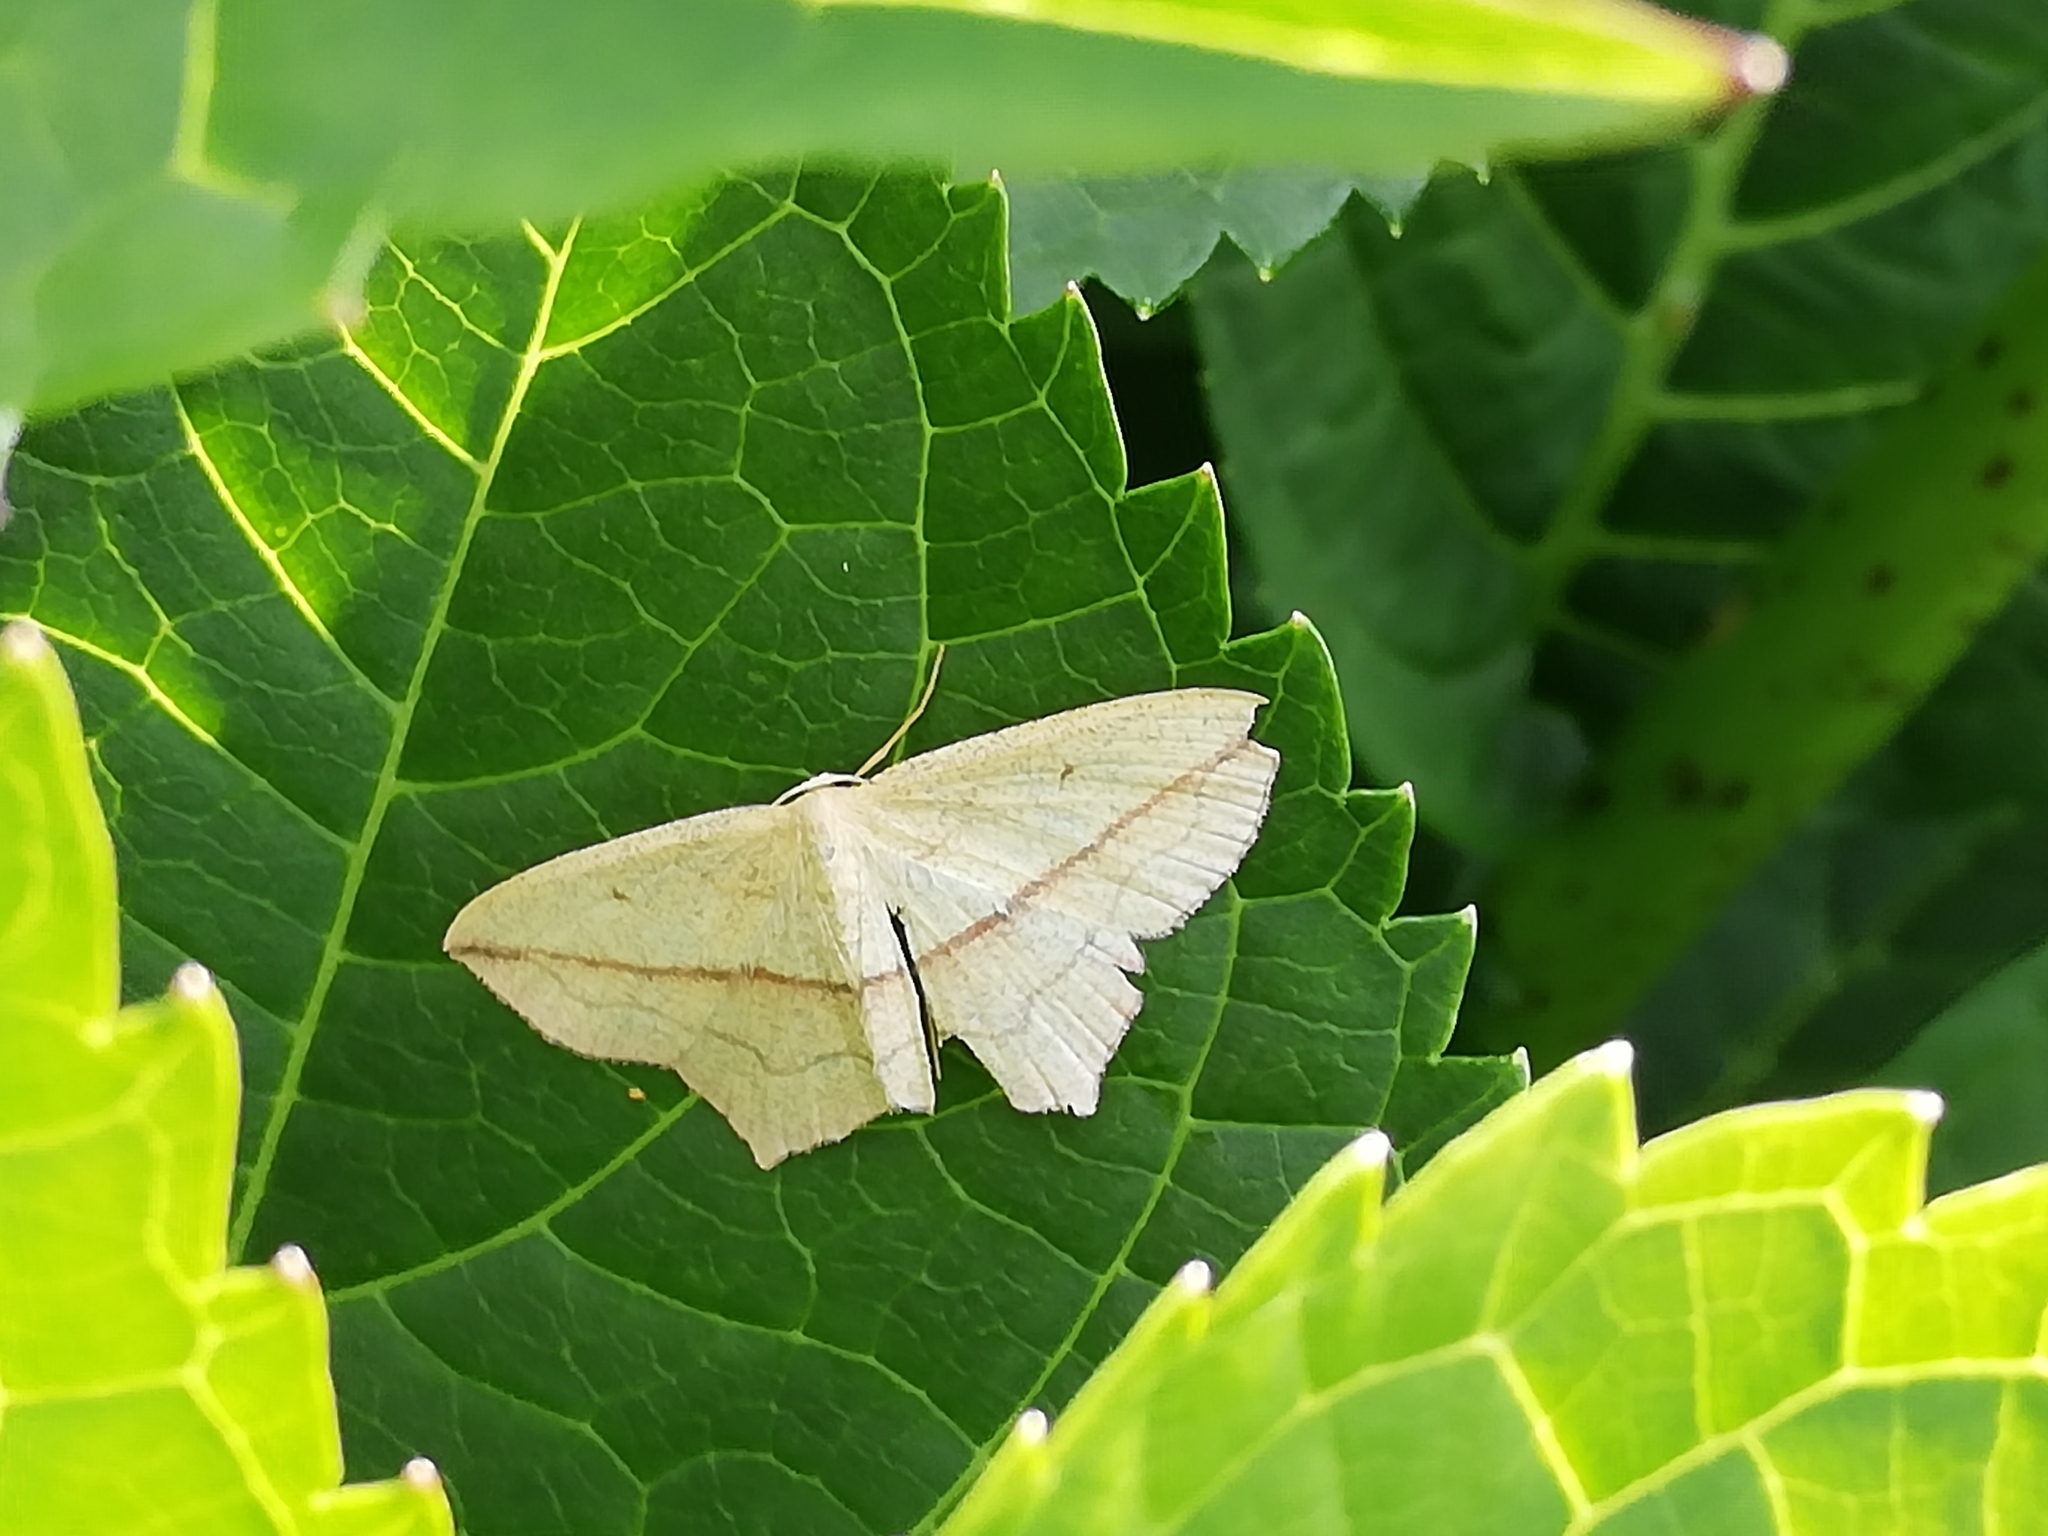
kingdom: Animalia
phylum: Arthropoda
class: Insecta
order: Lepidoptera
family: Geometridae
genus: Timandra
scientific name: Timandra comae
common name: Blood-vein
